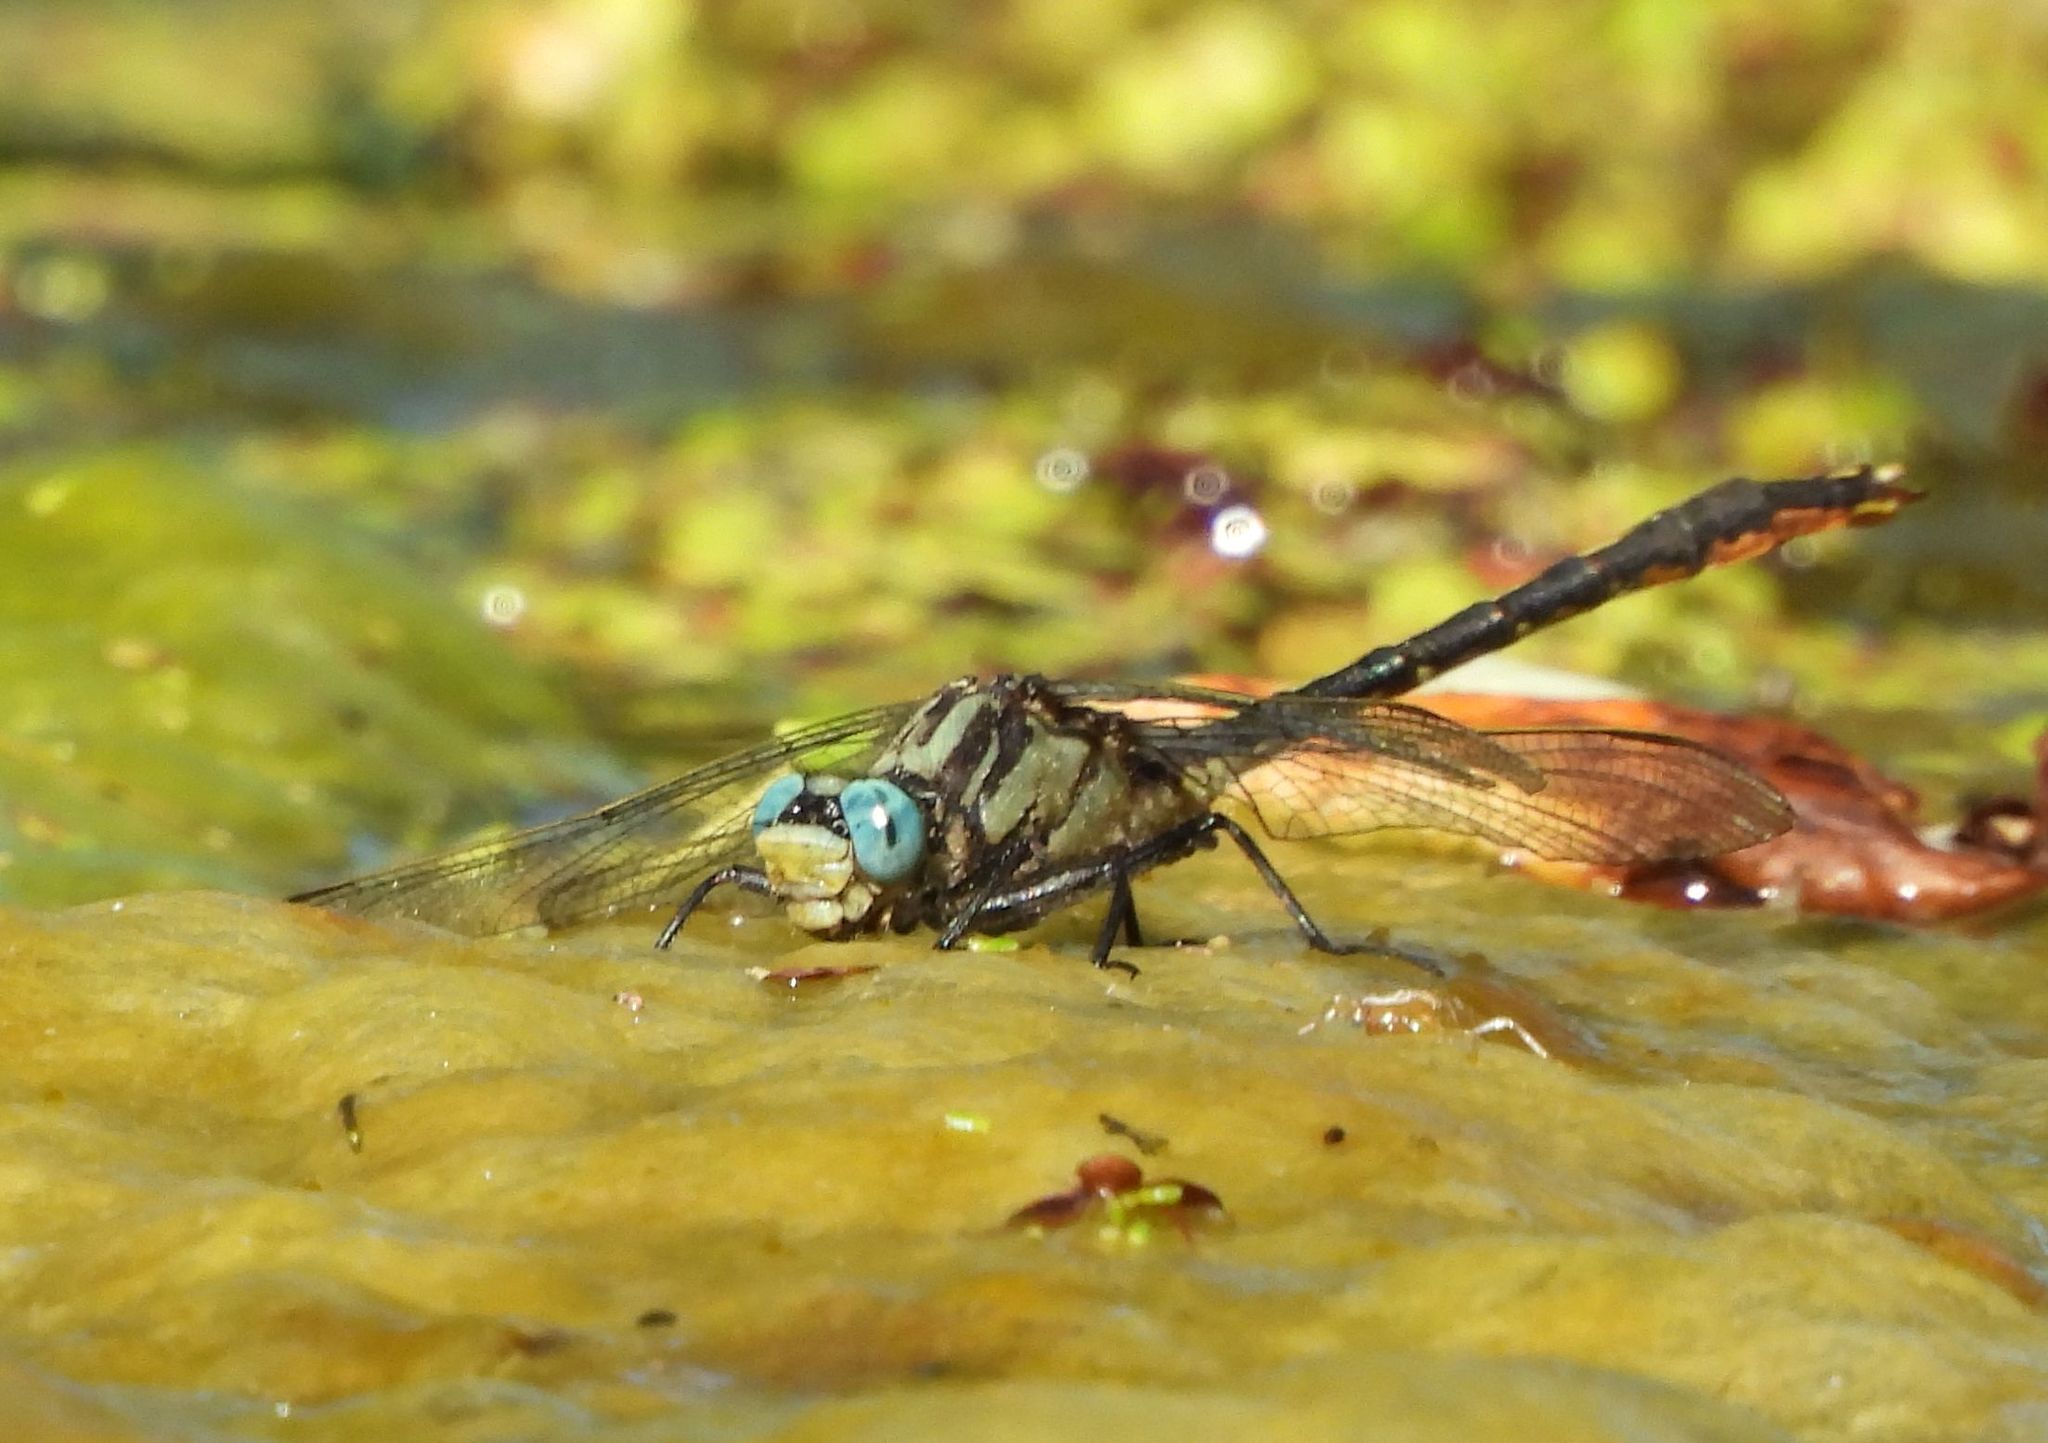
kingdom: Animalia
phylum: Arthropoda
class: Insecta
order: Odonata
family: Gomphidae
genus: Arigomphus
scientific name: Arigomphus furcifer
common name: Lilypad clubtail
